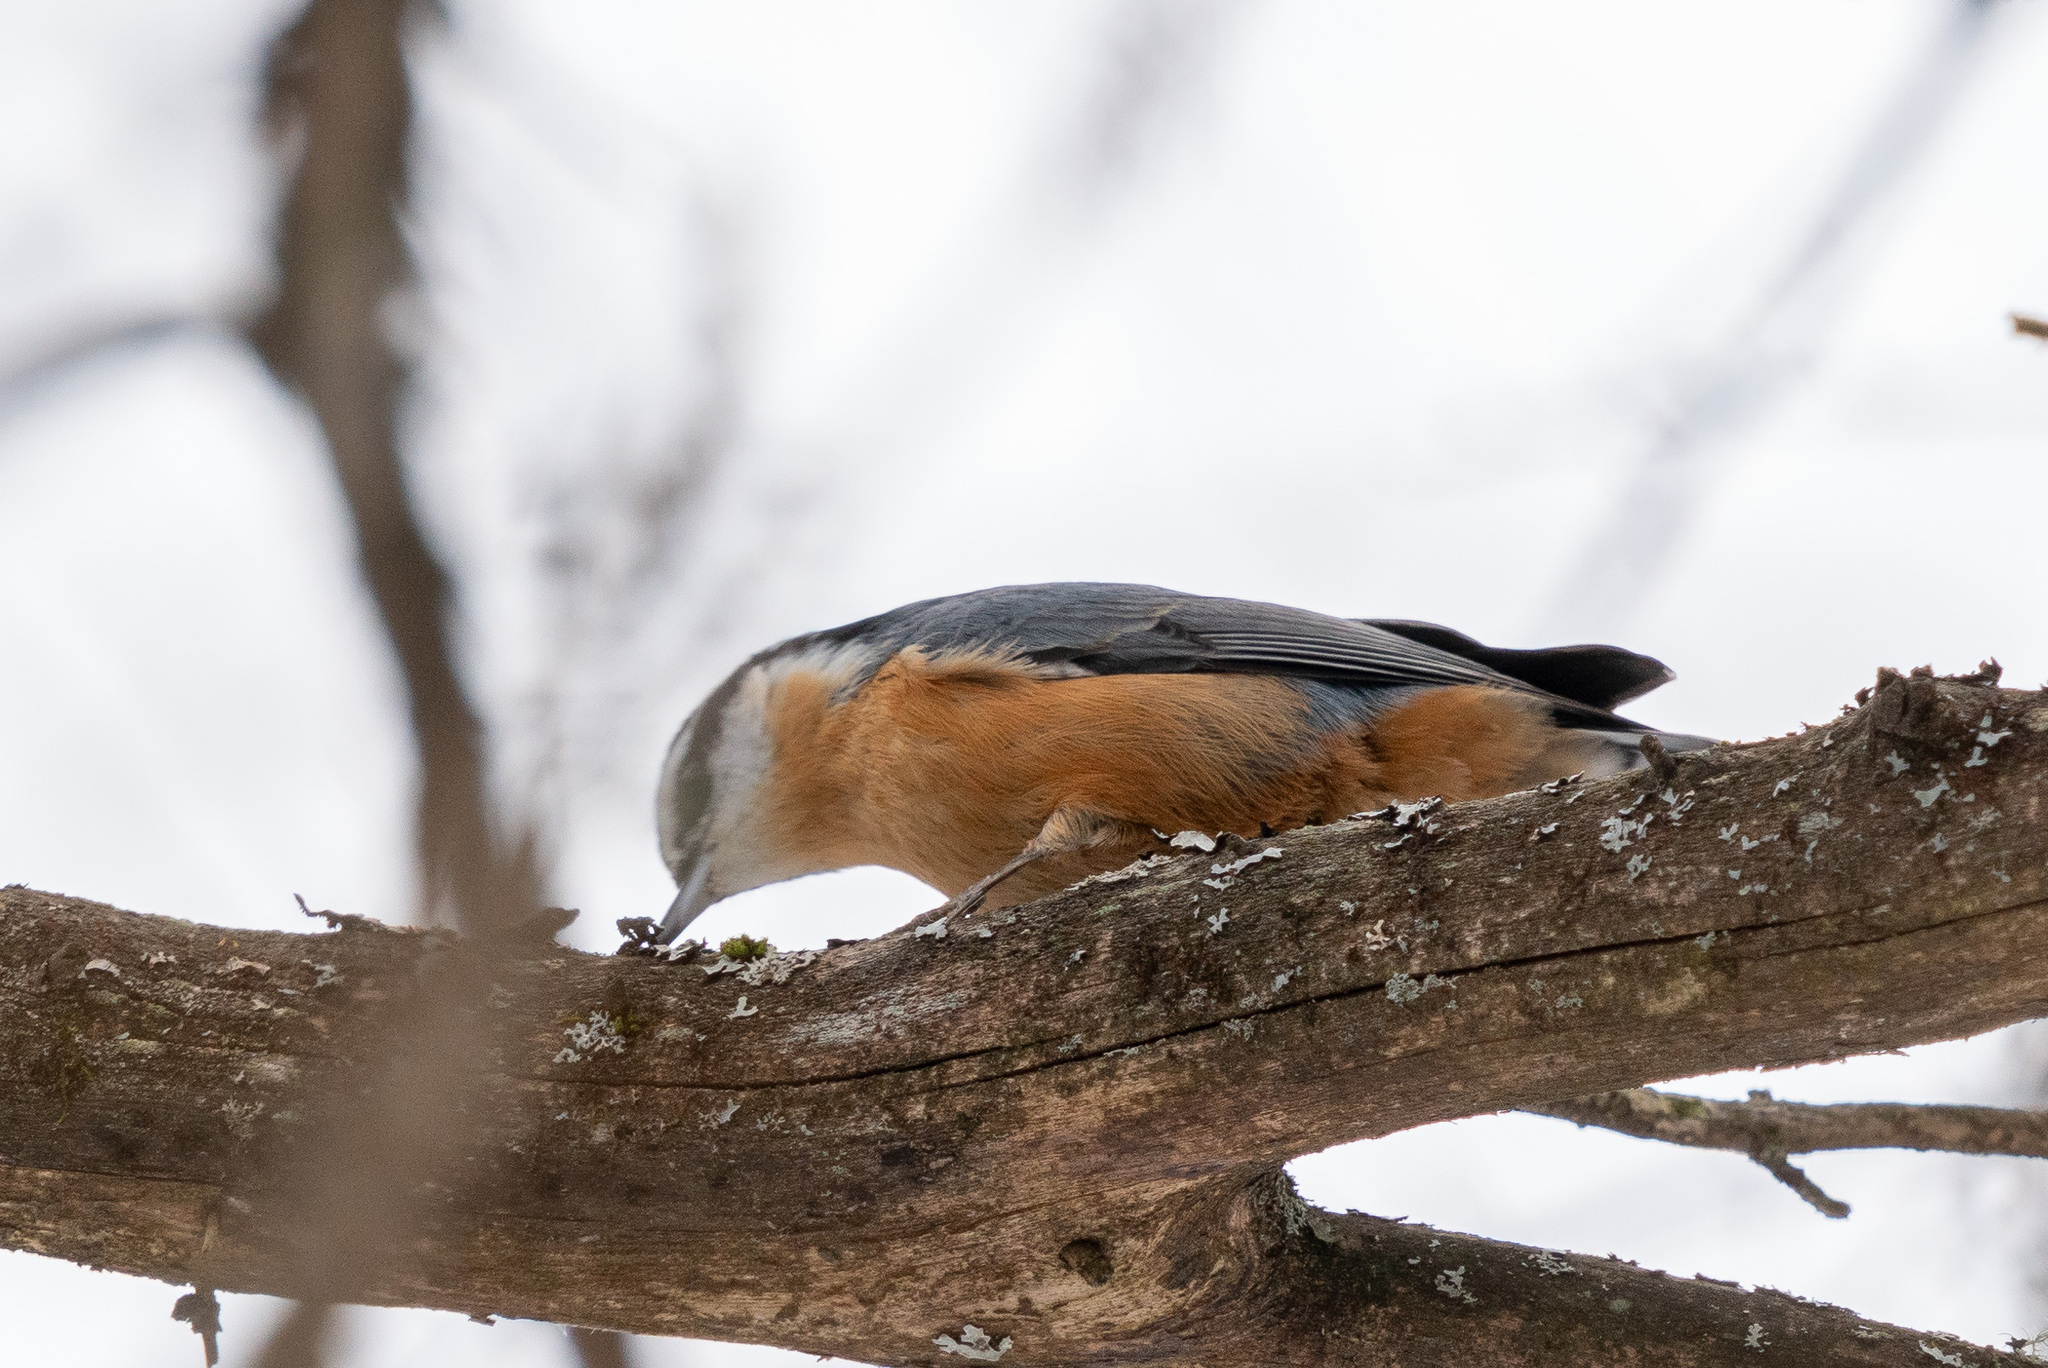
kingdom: Animalia
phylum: Chordata
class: Aves
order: Passeriformes
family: Sittidae
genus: Sitta
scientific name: Sitta canadensis
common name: Red-breasted nuthatch
